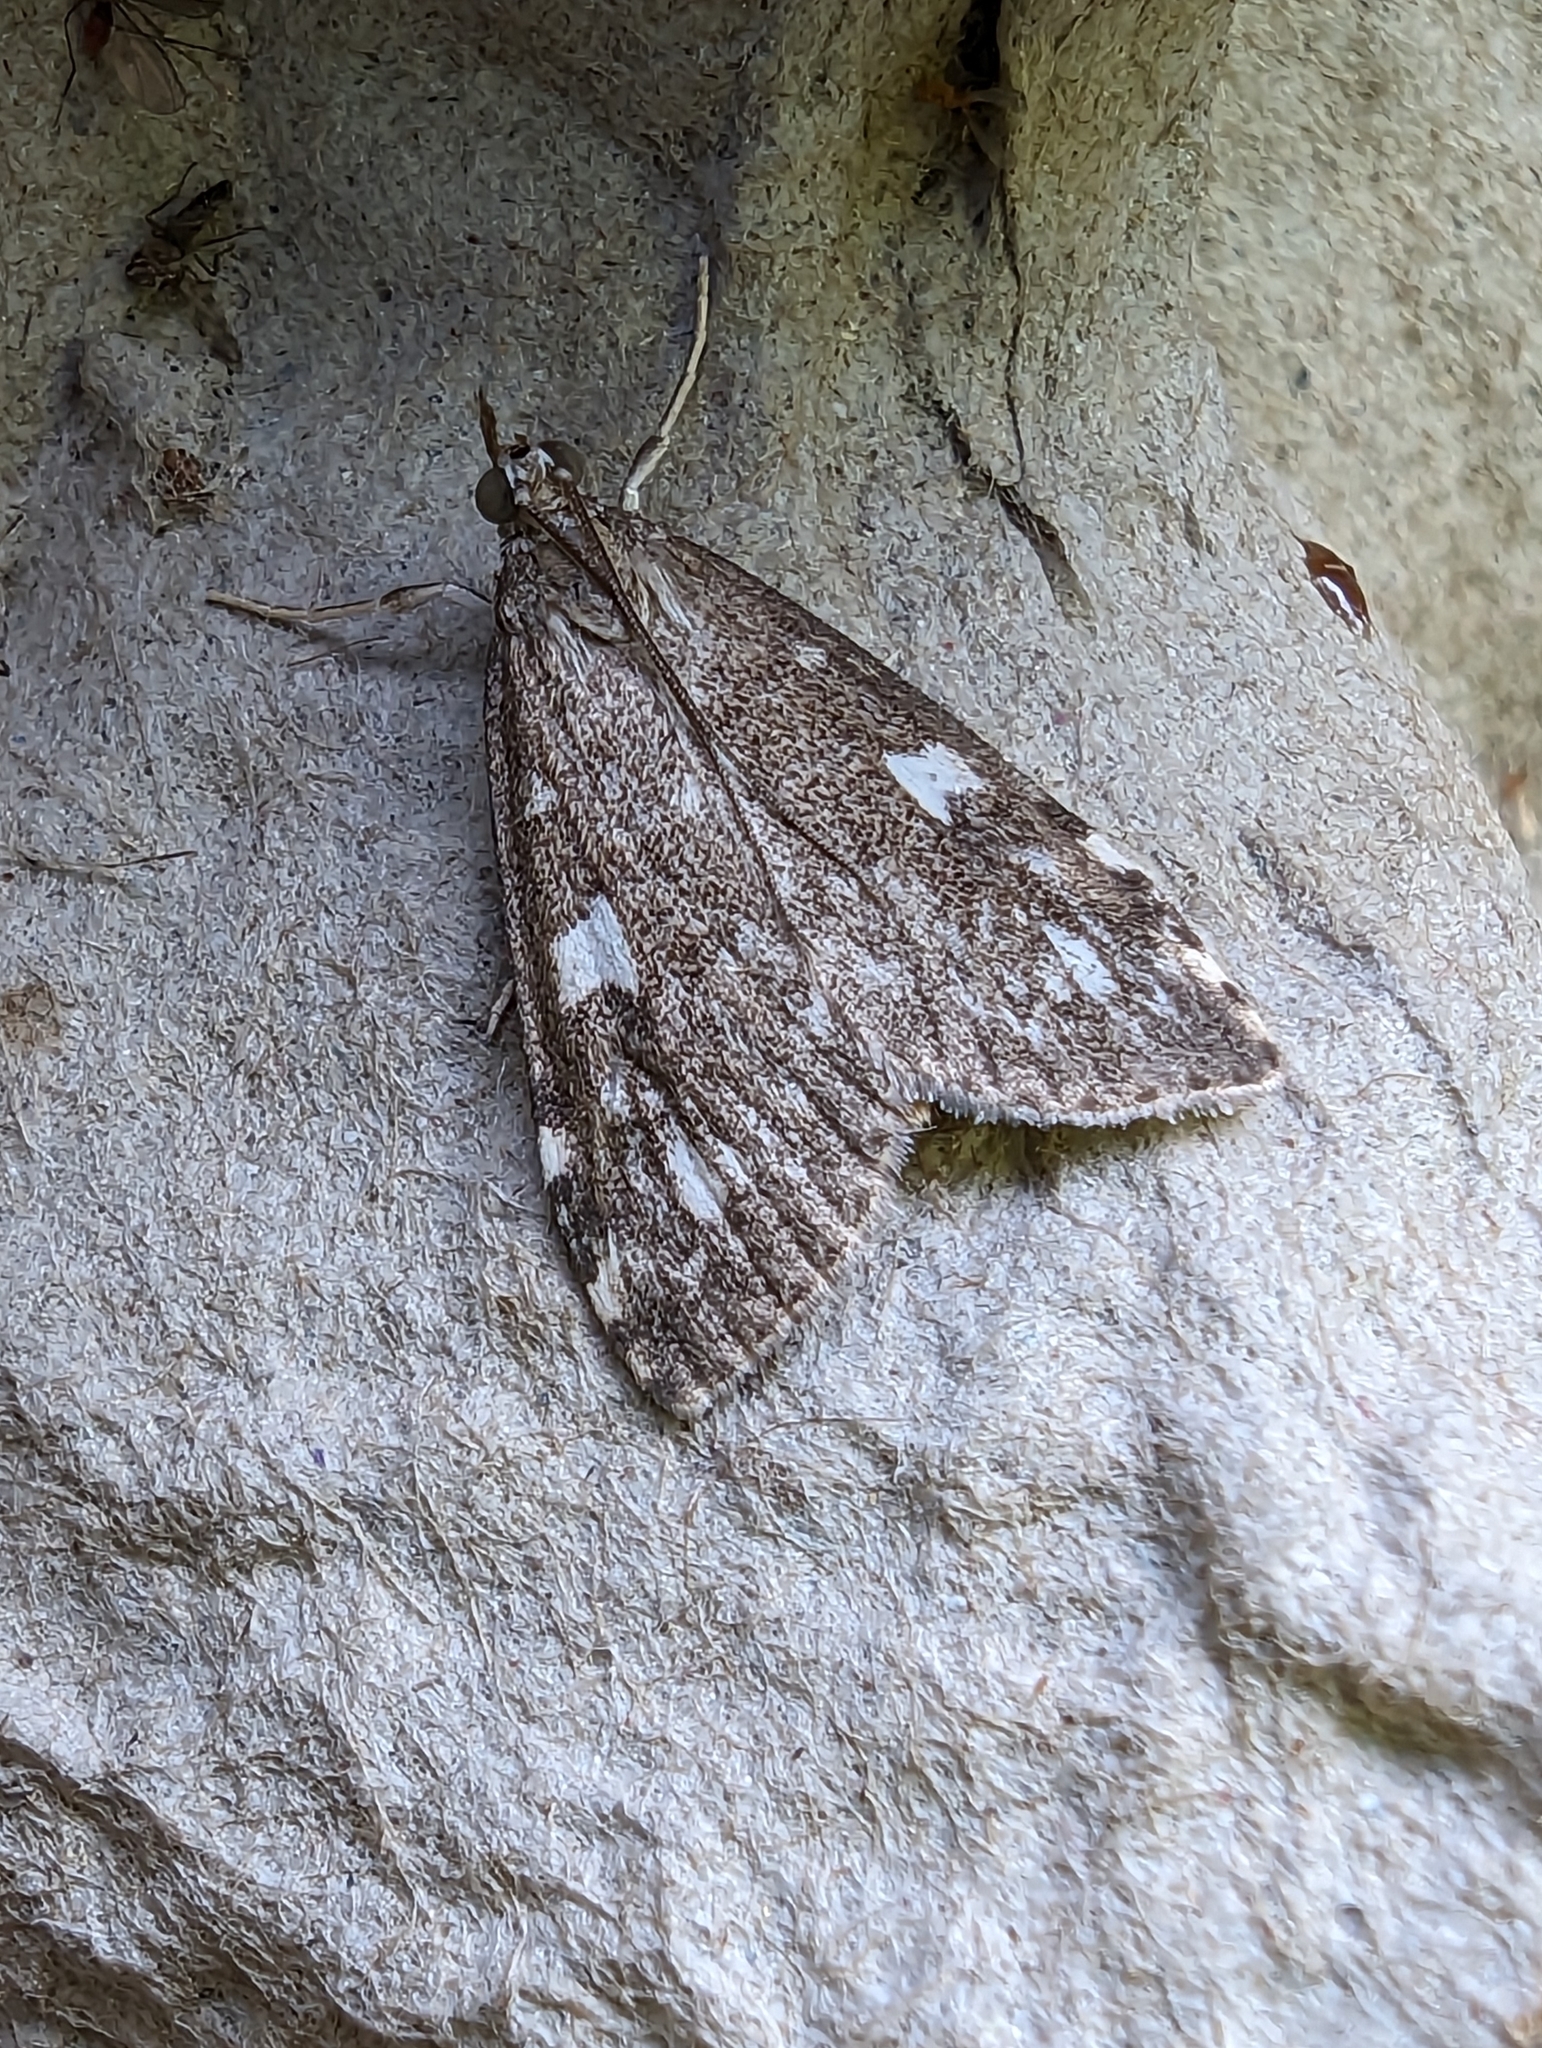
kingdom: Animalia
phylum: Arthropoda
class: Insecta
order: Lepidoptera
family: Crambidae
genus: Udea
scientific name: Udea olivalis
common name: Olive pearl
